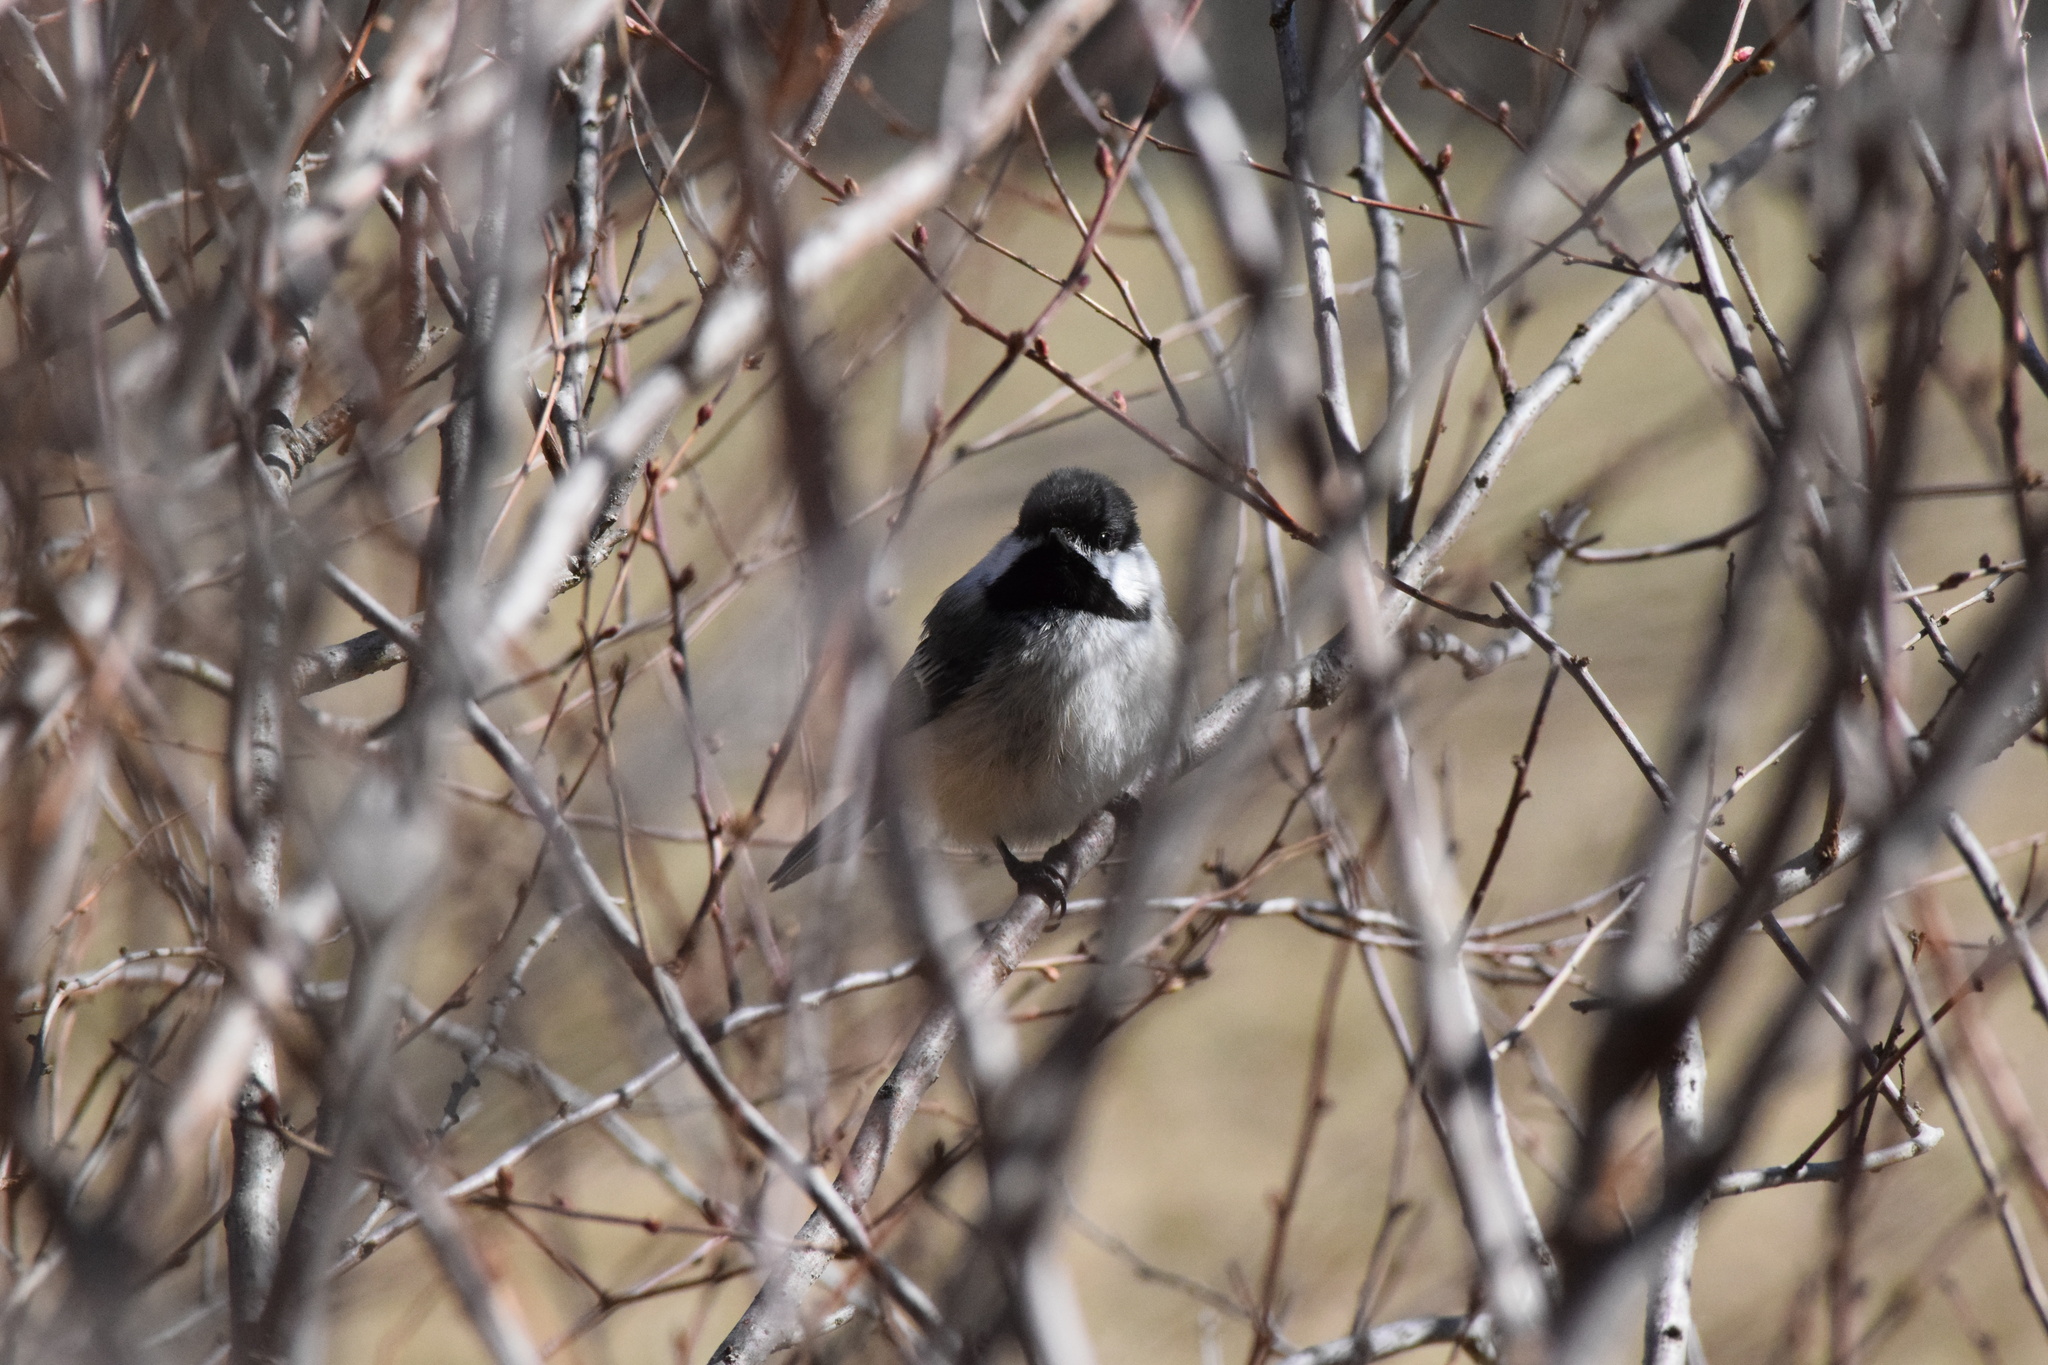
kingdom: Animalia
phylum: Chordata
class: Aves
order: Passeriformes
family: Paridae
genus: Poecile
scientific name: Poecile atricapillus
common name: Black-capped chickadee
